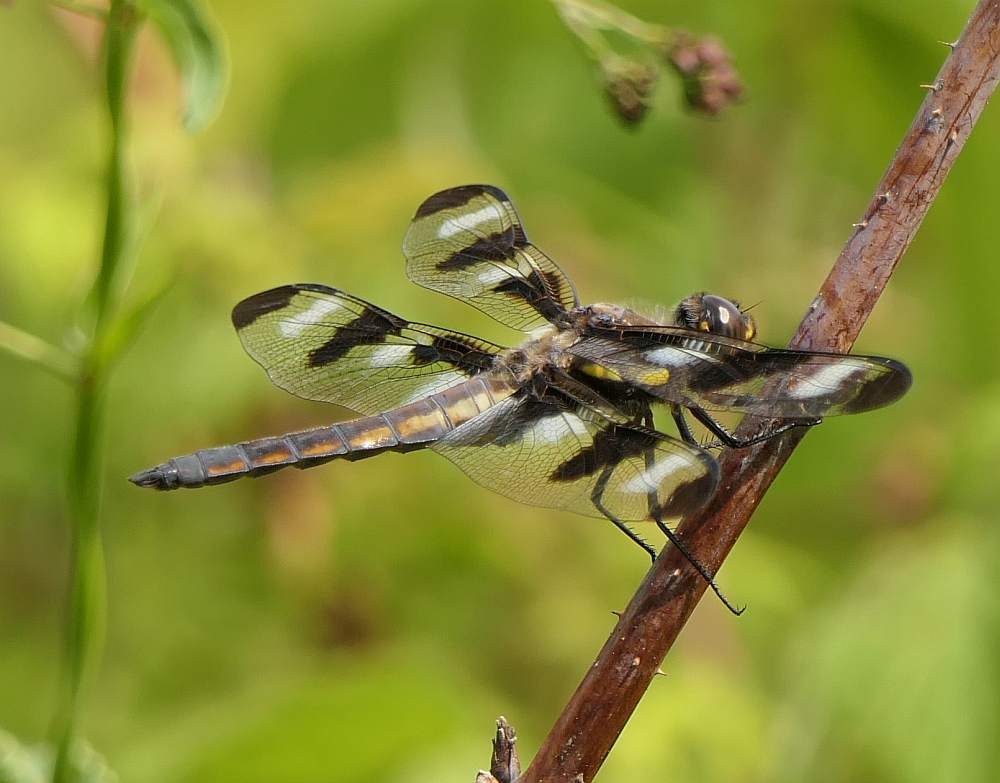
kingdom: Animalia
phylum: Arthropoda
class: Insecta
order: Odonata
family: Libellulidae
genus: Libellula
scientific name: Libellula pulchella
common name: Twelve-spotted skimmer
